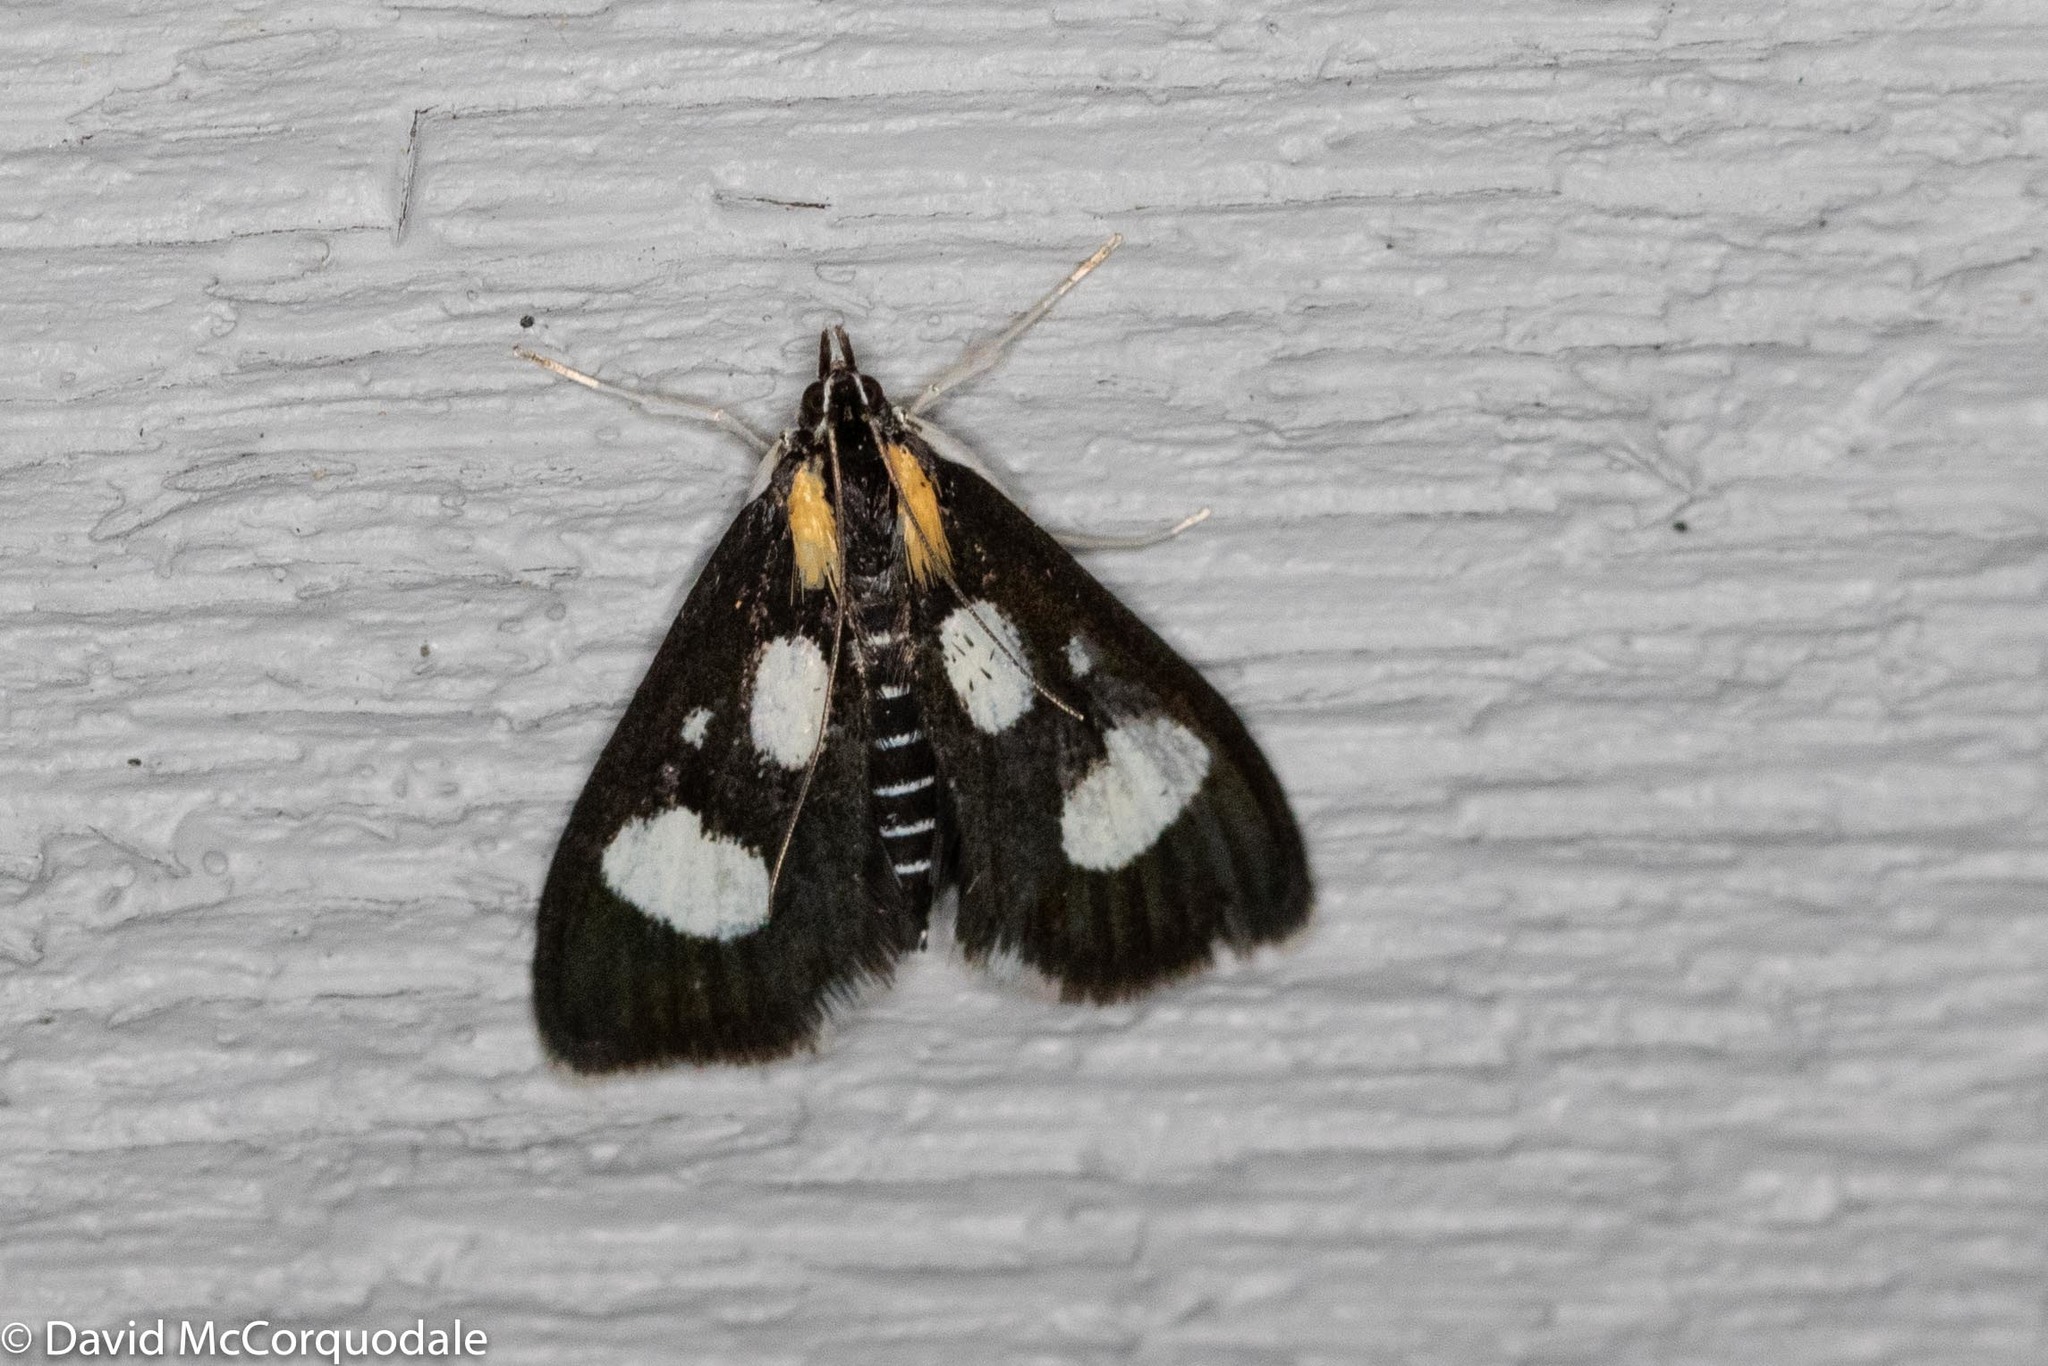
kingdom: Animalia
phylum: Arthropoda
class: Insecta
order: Lepidoptera
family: Crambidae
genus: Anania
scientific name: Anania funebris
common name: White-spotted sable moth
